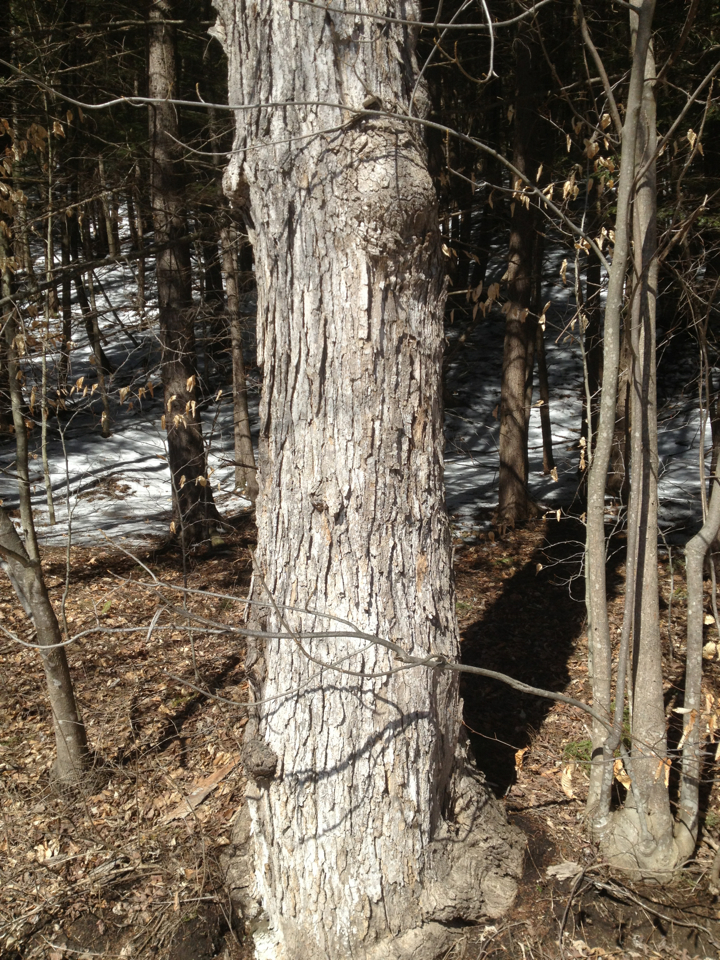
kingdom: Plantae
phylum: Tracheophyta
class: Magnoliopsida
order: Sapindales
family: Sapindaceae
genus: Acer
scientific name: Acer saccharum
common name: Sugar maple
